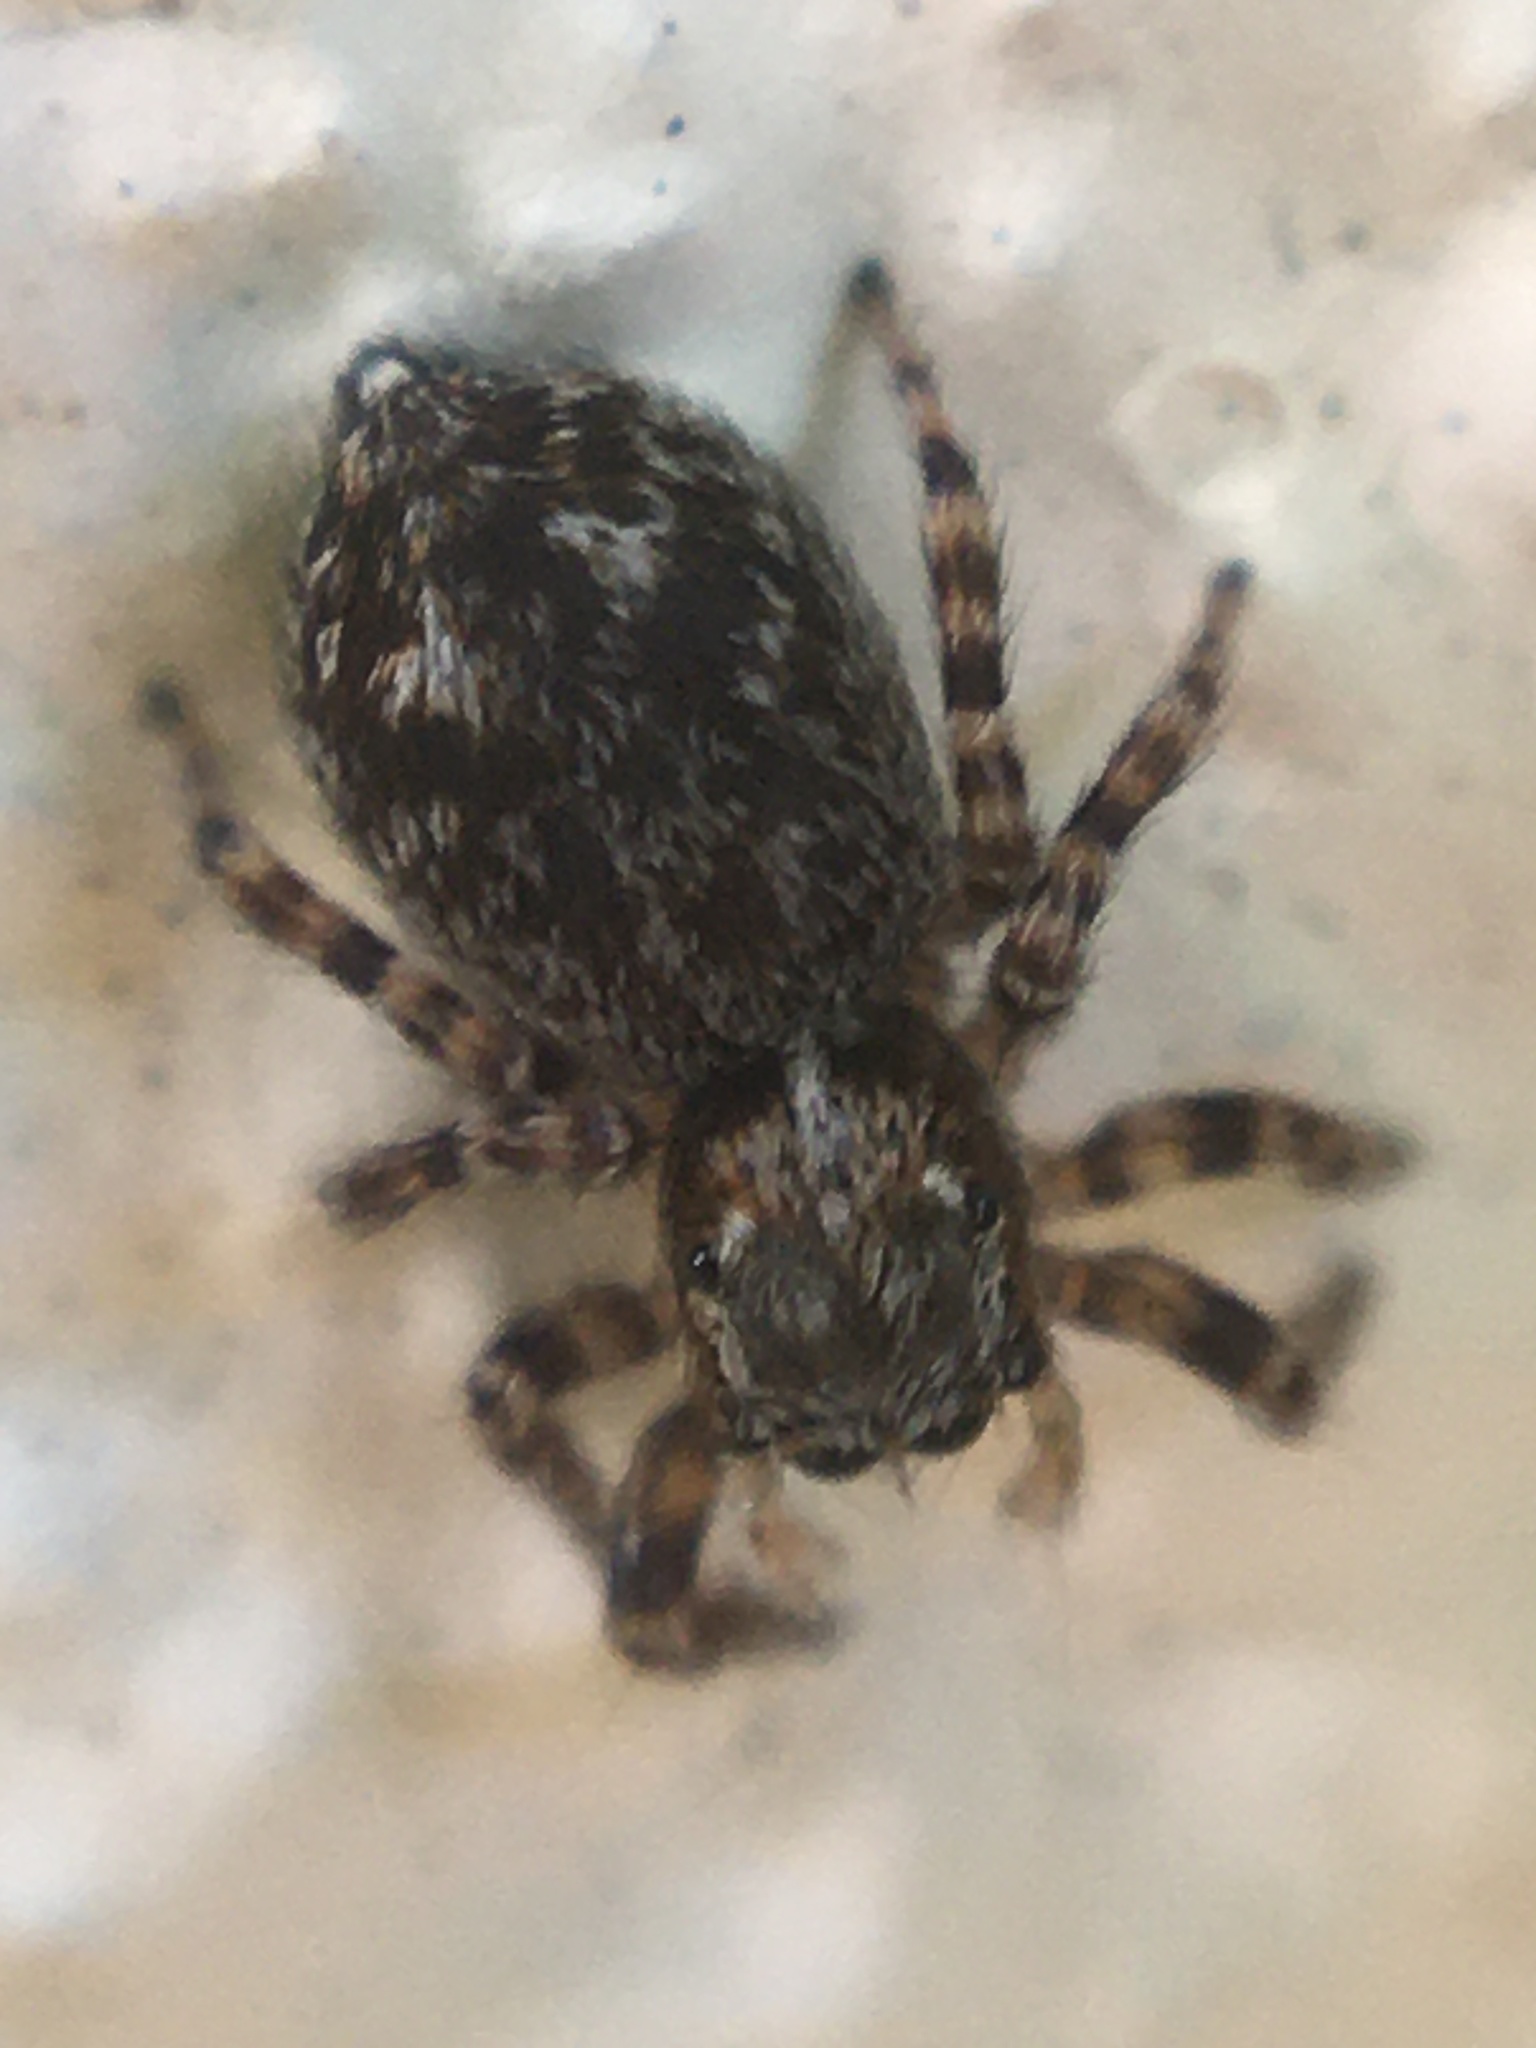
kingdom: Animalia
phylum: Arthropoda
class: Arachnida
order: Araneae
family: Salticidae
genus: Pseudeuophrys
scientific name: Pseudeuophrys erratica
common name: Jumping spider
